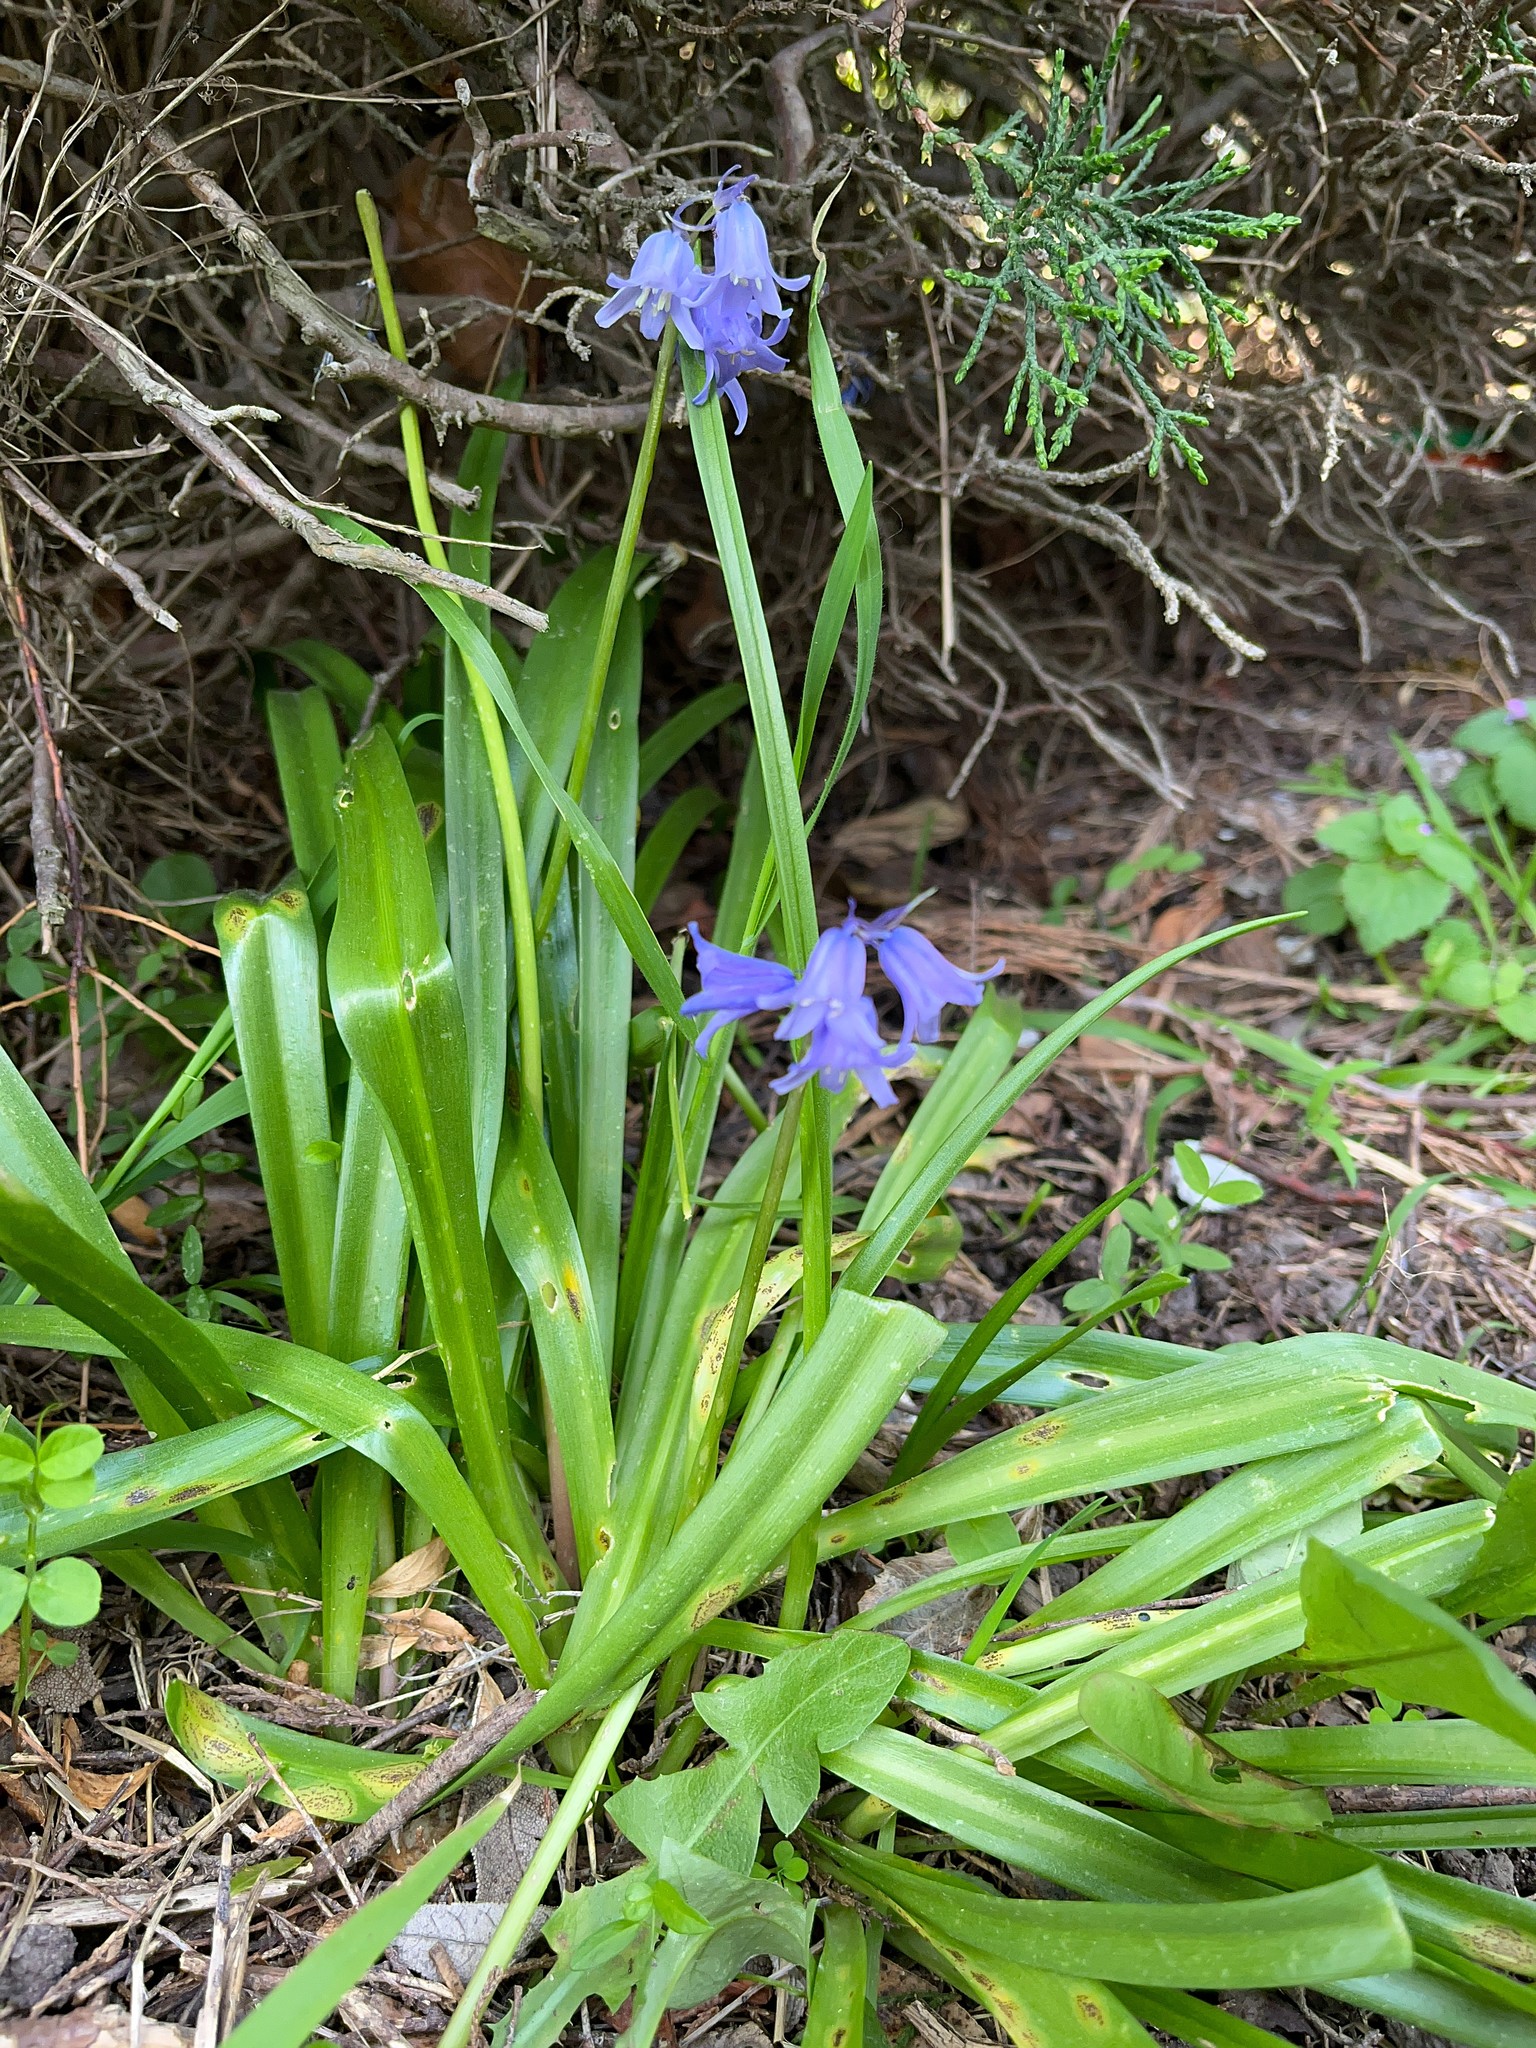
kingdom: Plantae
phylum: Tracheophyta
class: Liliopsida
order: Asparagales
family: Asparagaceae
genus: Hyacinthoides
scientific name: Hyacinthoides massartiana
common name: Hyacinthoides
